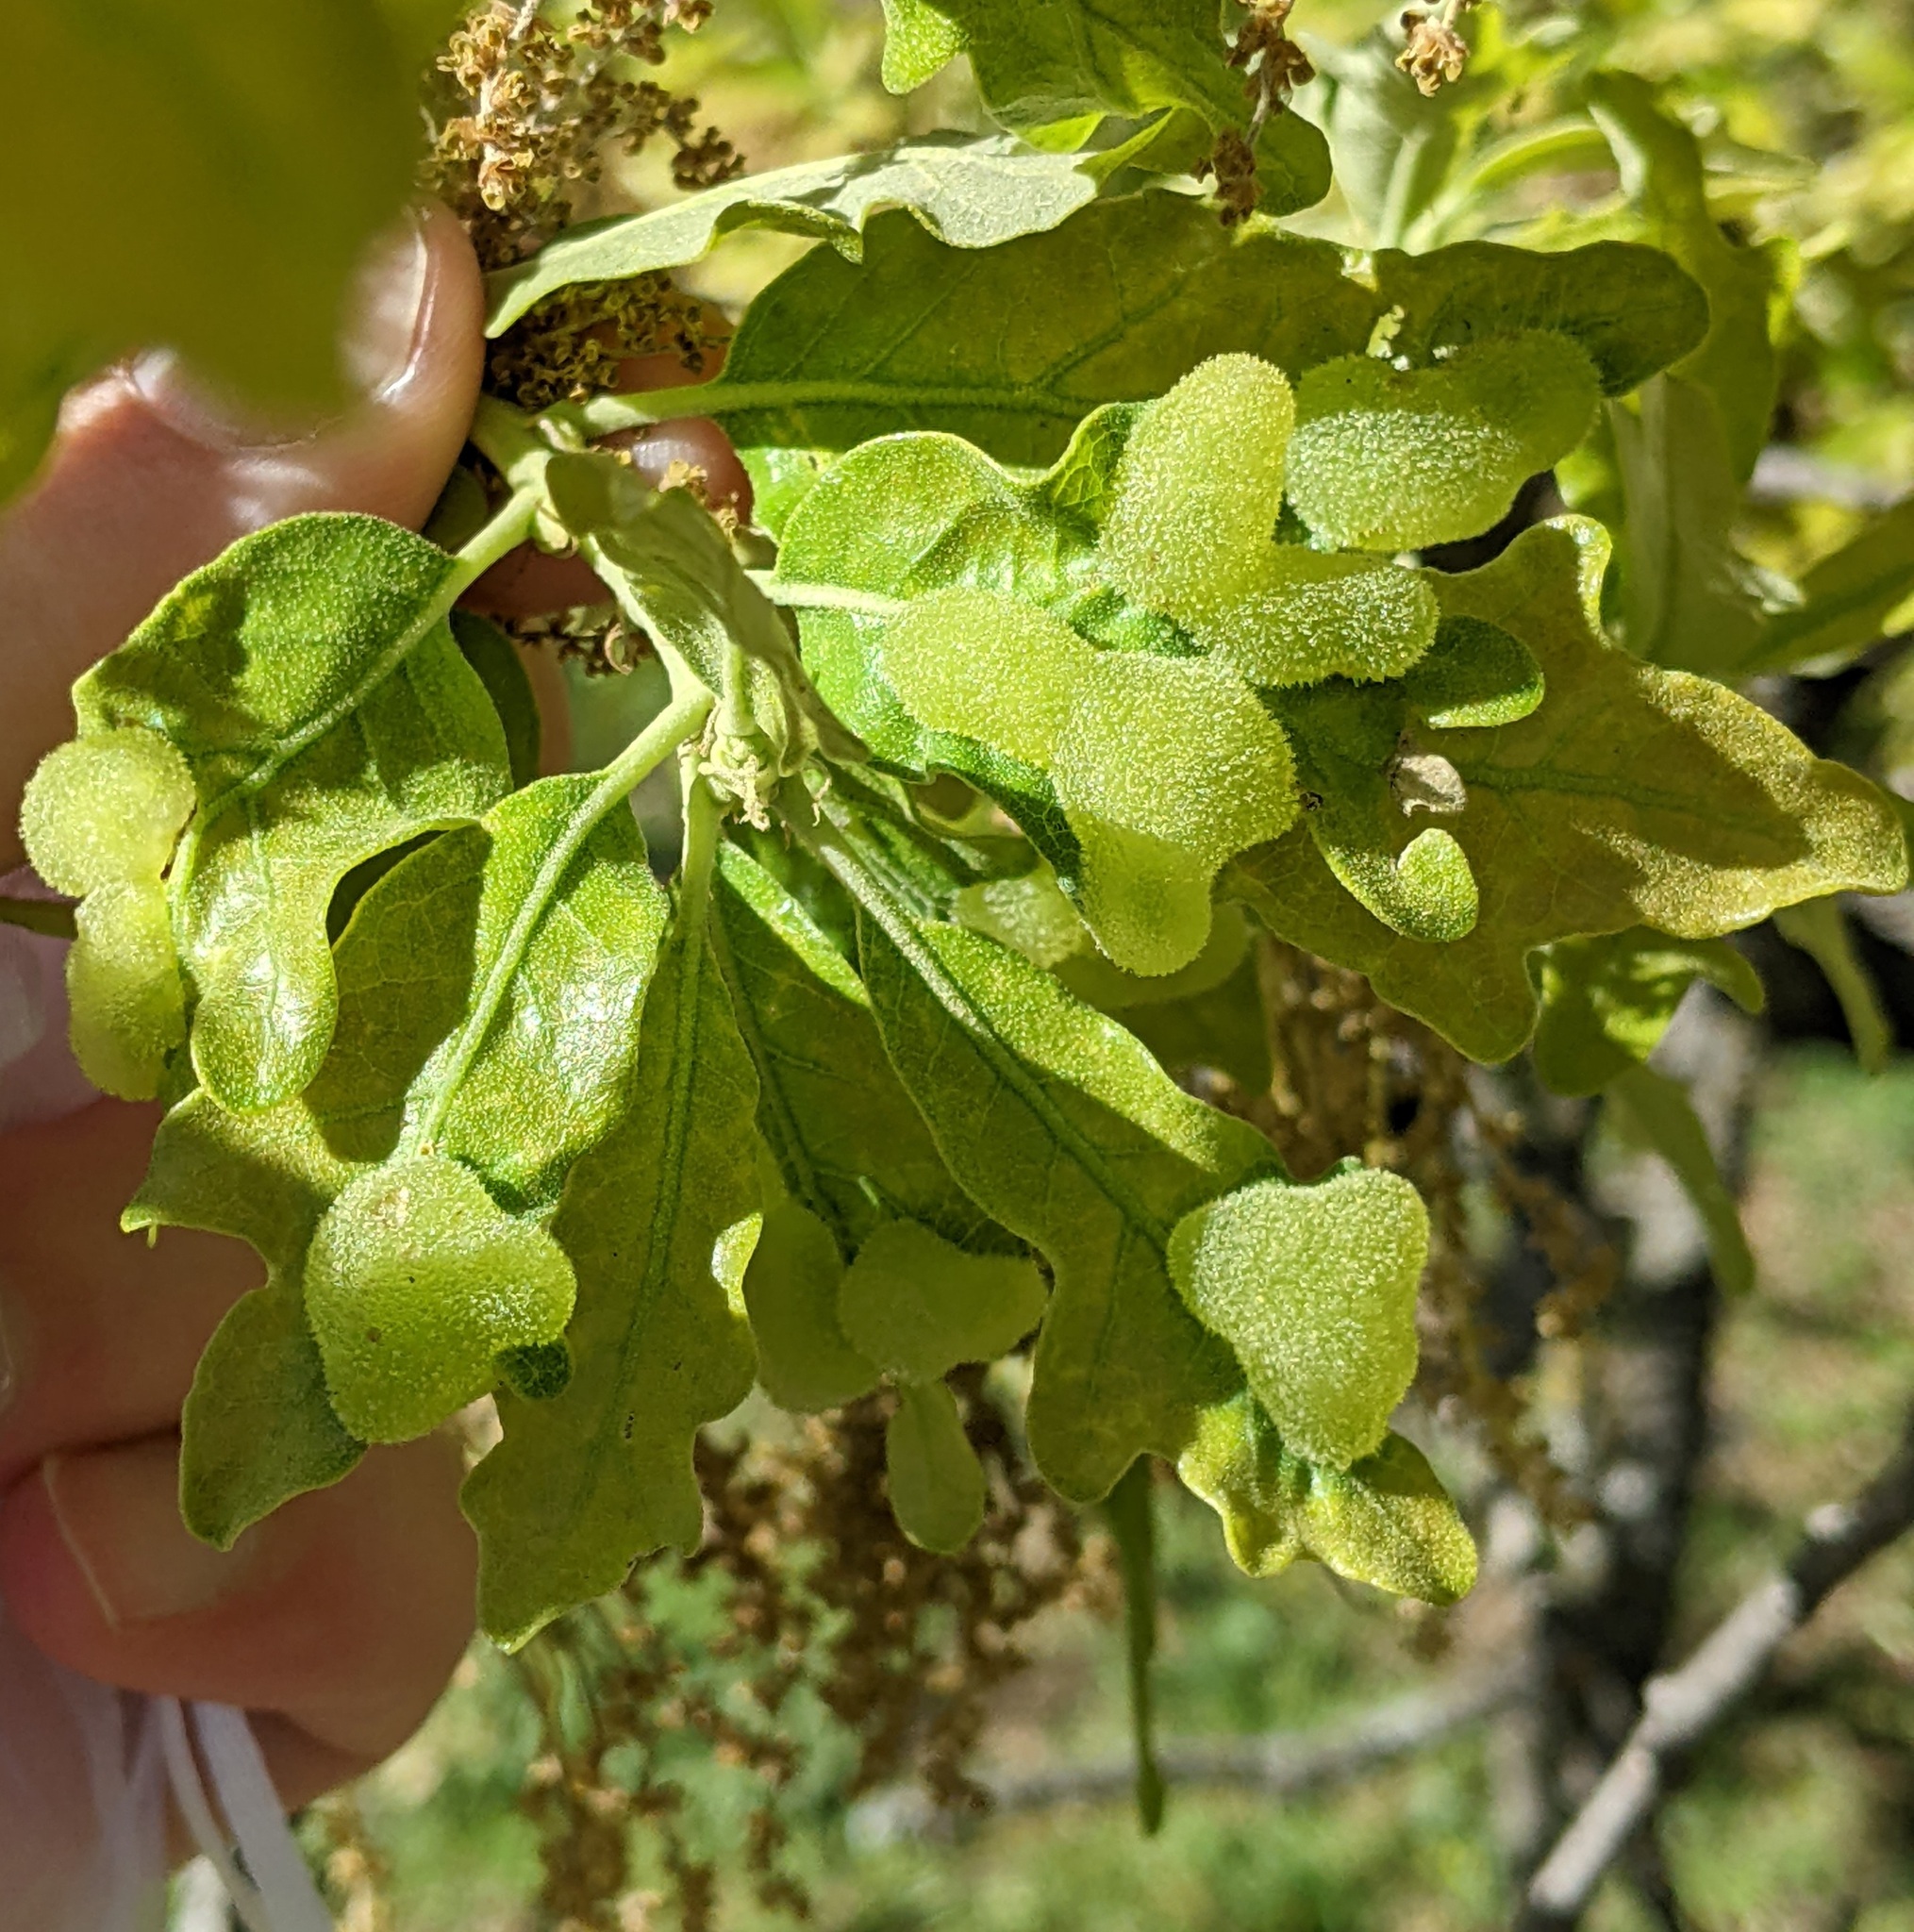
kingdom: Animalia
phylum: Arthropoda
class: Insecta
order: Hymenoptera
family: Cynipidae
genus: Neuroterus
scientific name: Neuroterus quercusirregularis
